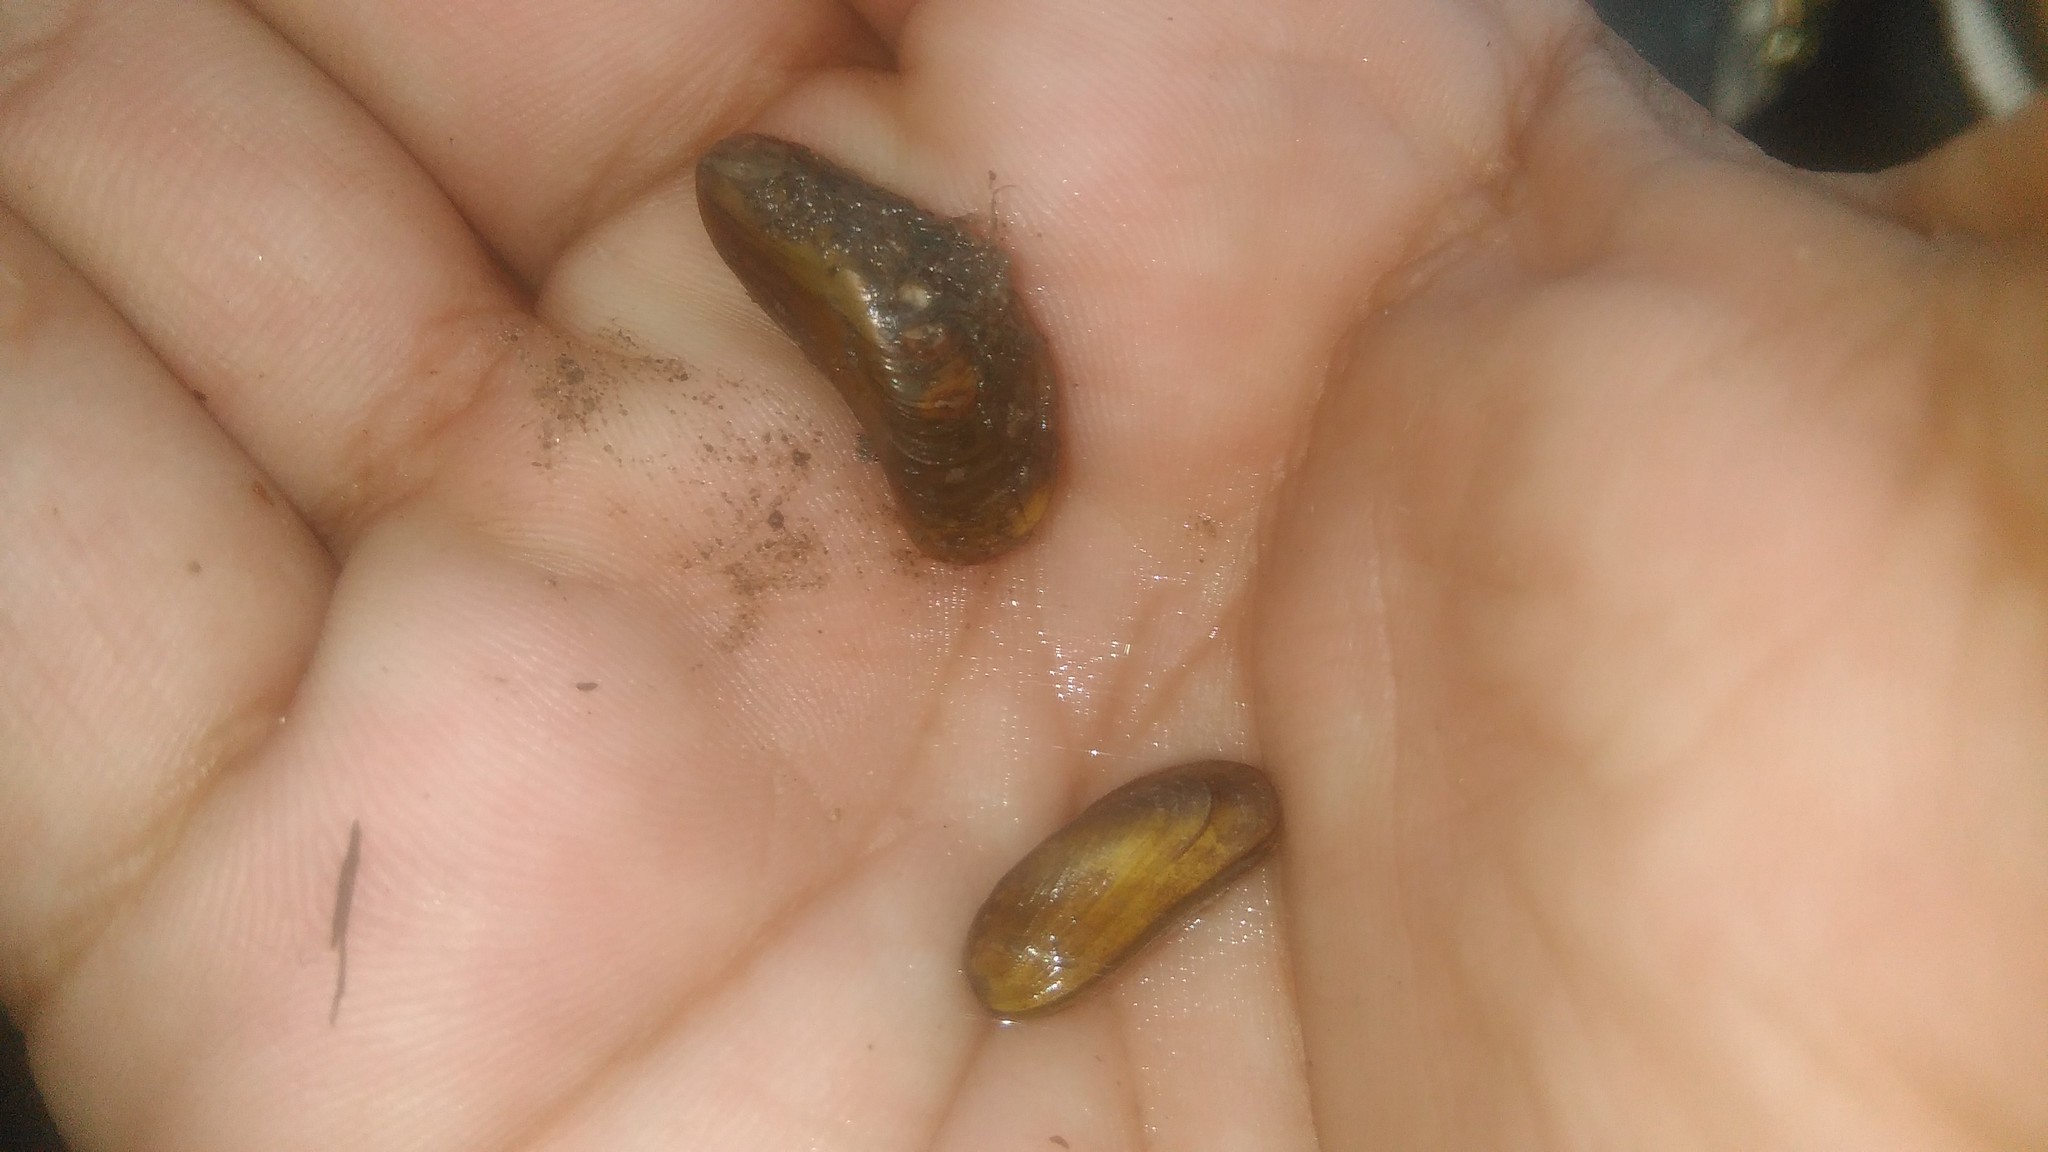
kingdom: Animalia
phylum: Mollusca
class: Bivalvia
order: Mytilida
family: Mytilidae
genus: Limnoperna
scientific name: Limnoperna fortunei
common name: Golden mussel
